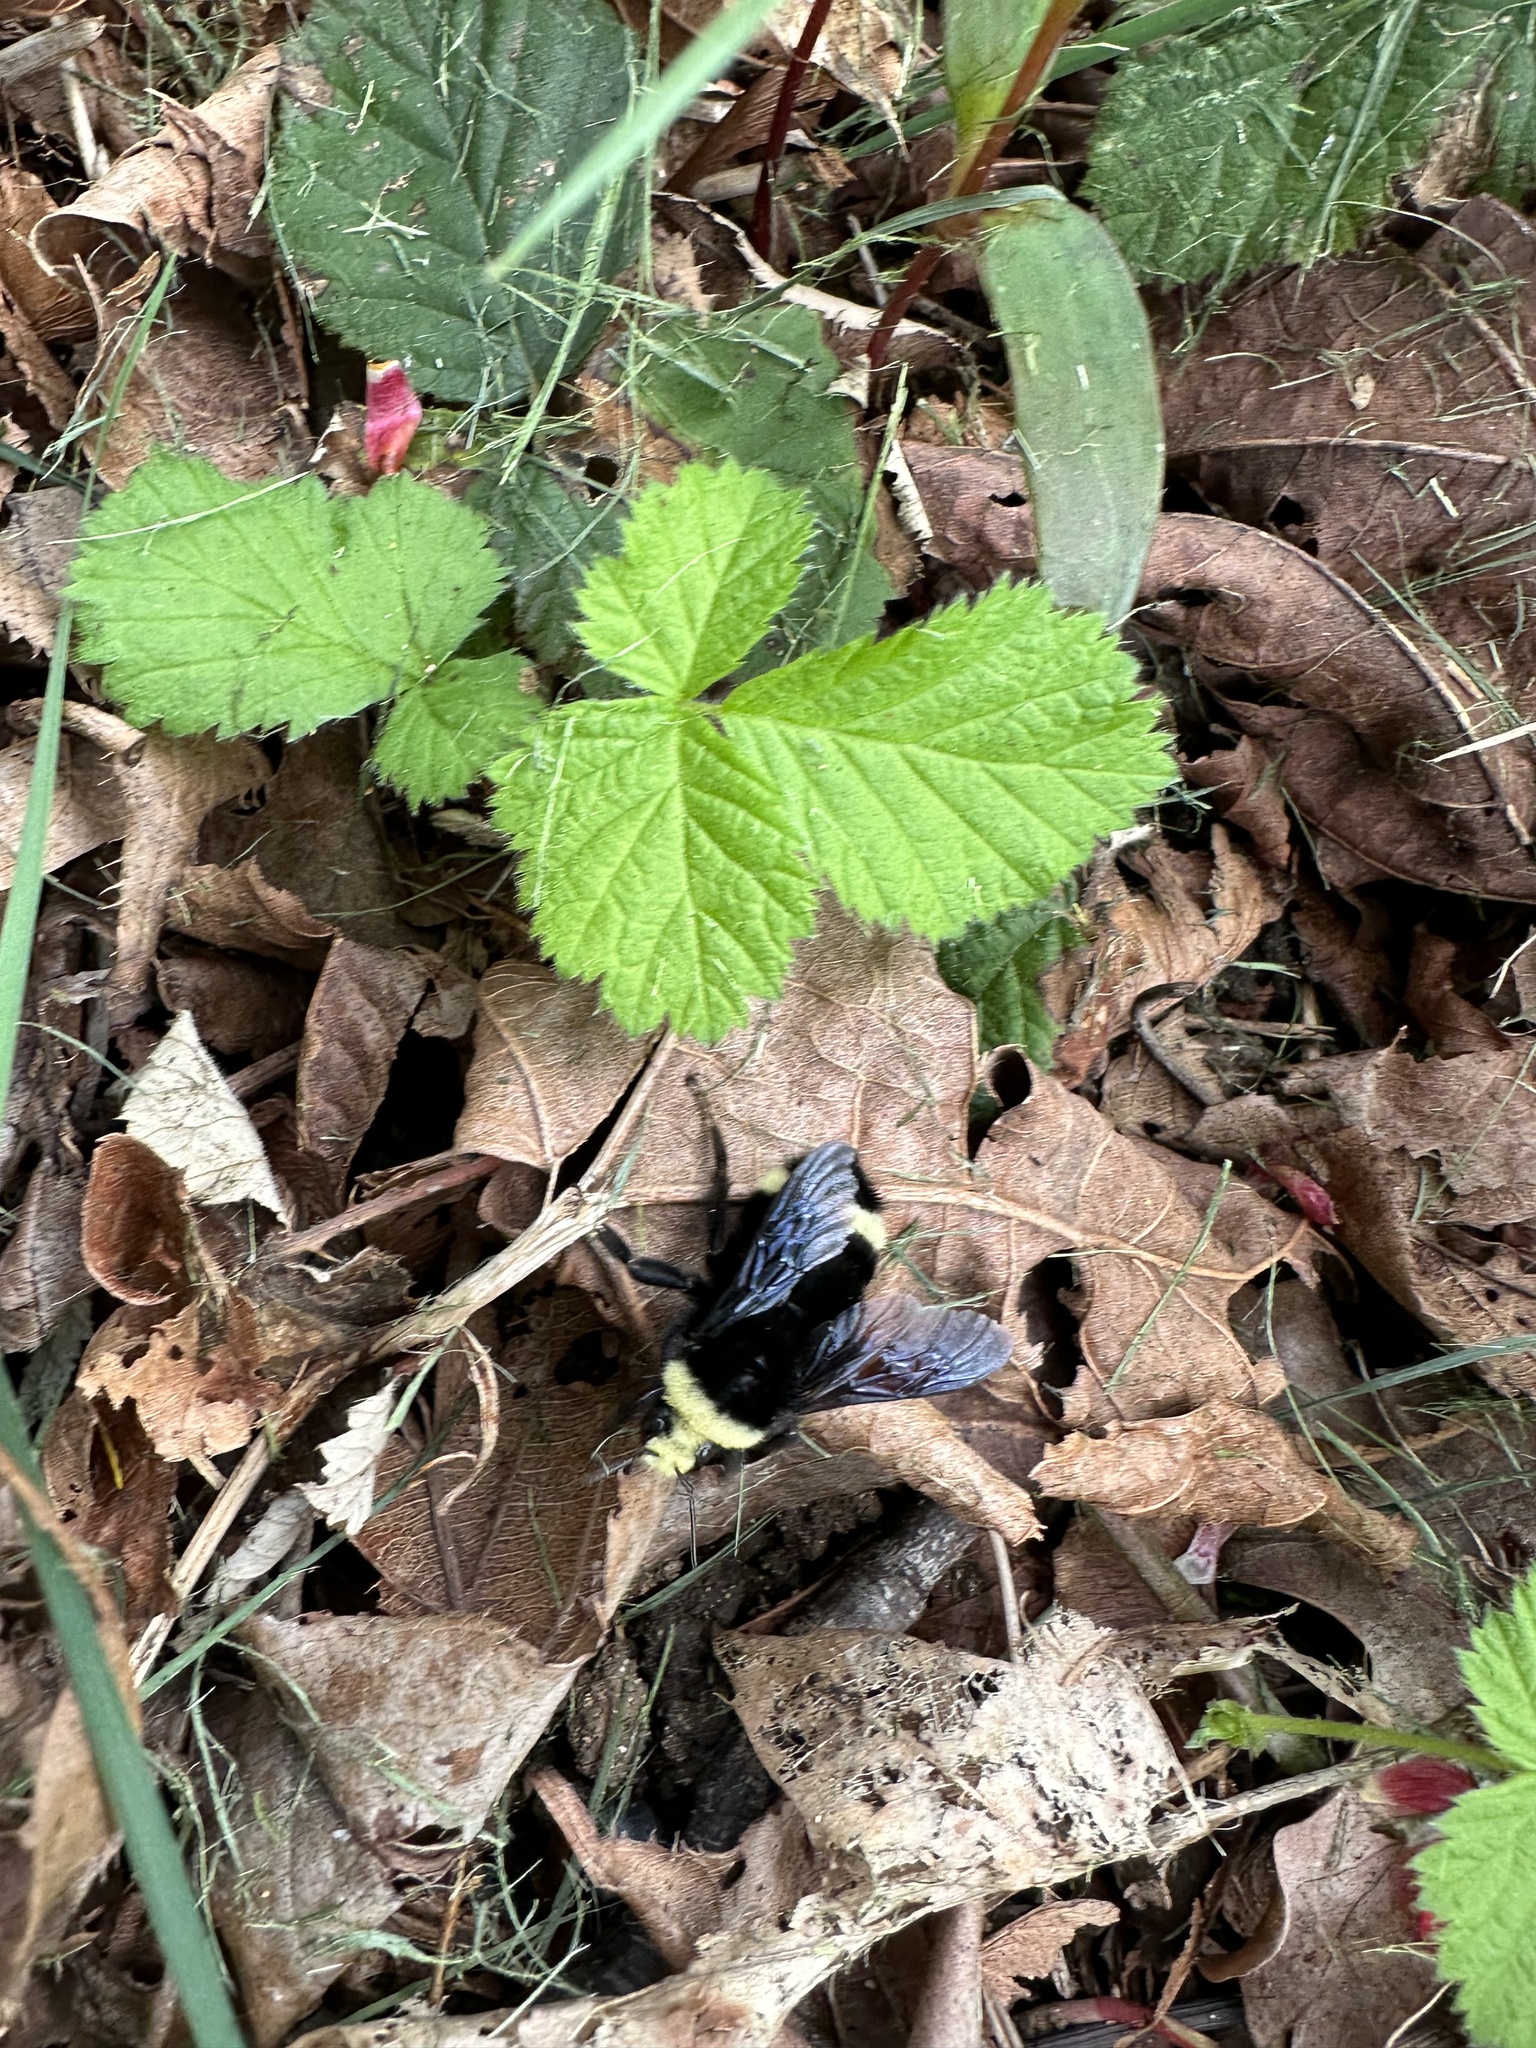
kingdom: Animalia
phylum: Arthropoda
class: Insecta
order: Hymenoptera
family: Apidae
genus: Bombus
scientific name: Bombus vosnesenskii
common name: Vosnesensky bumble bee
